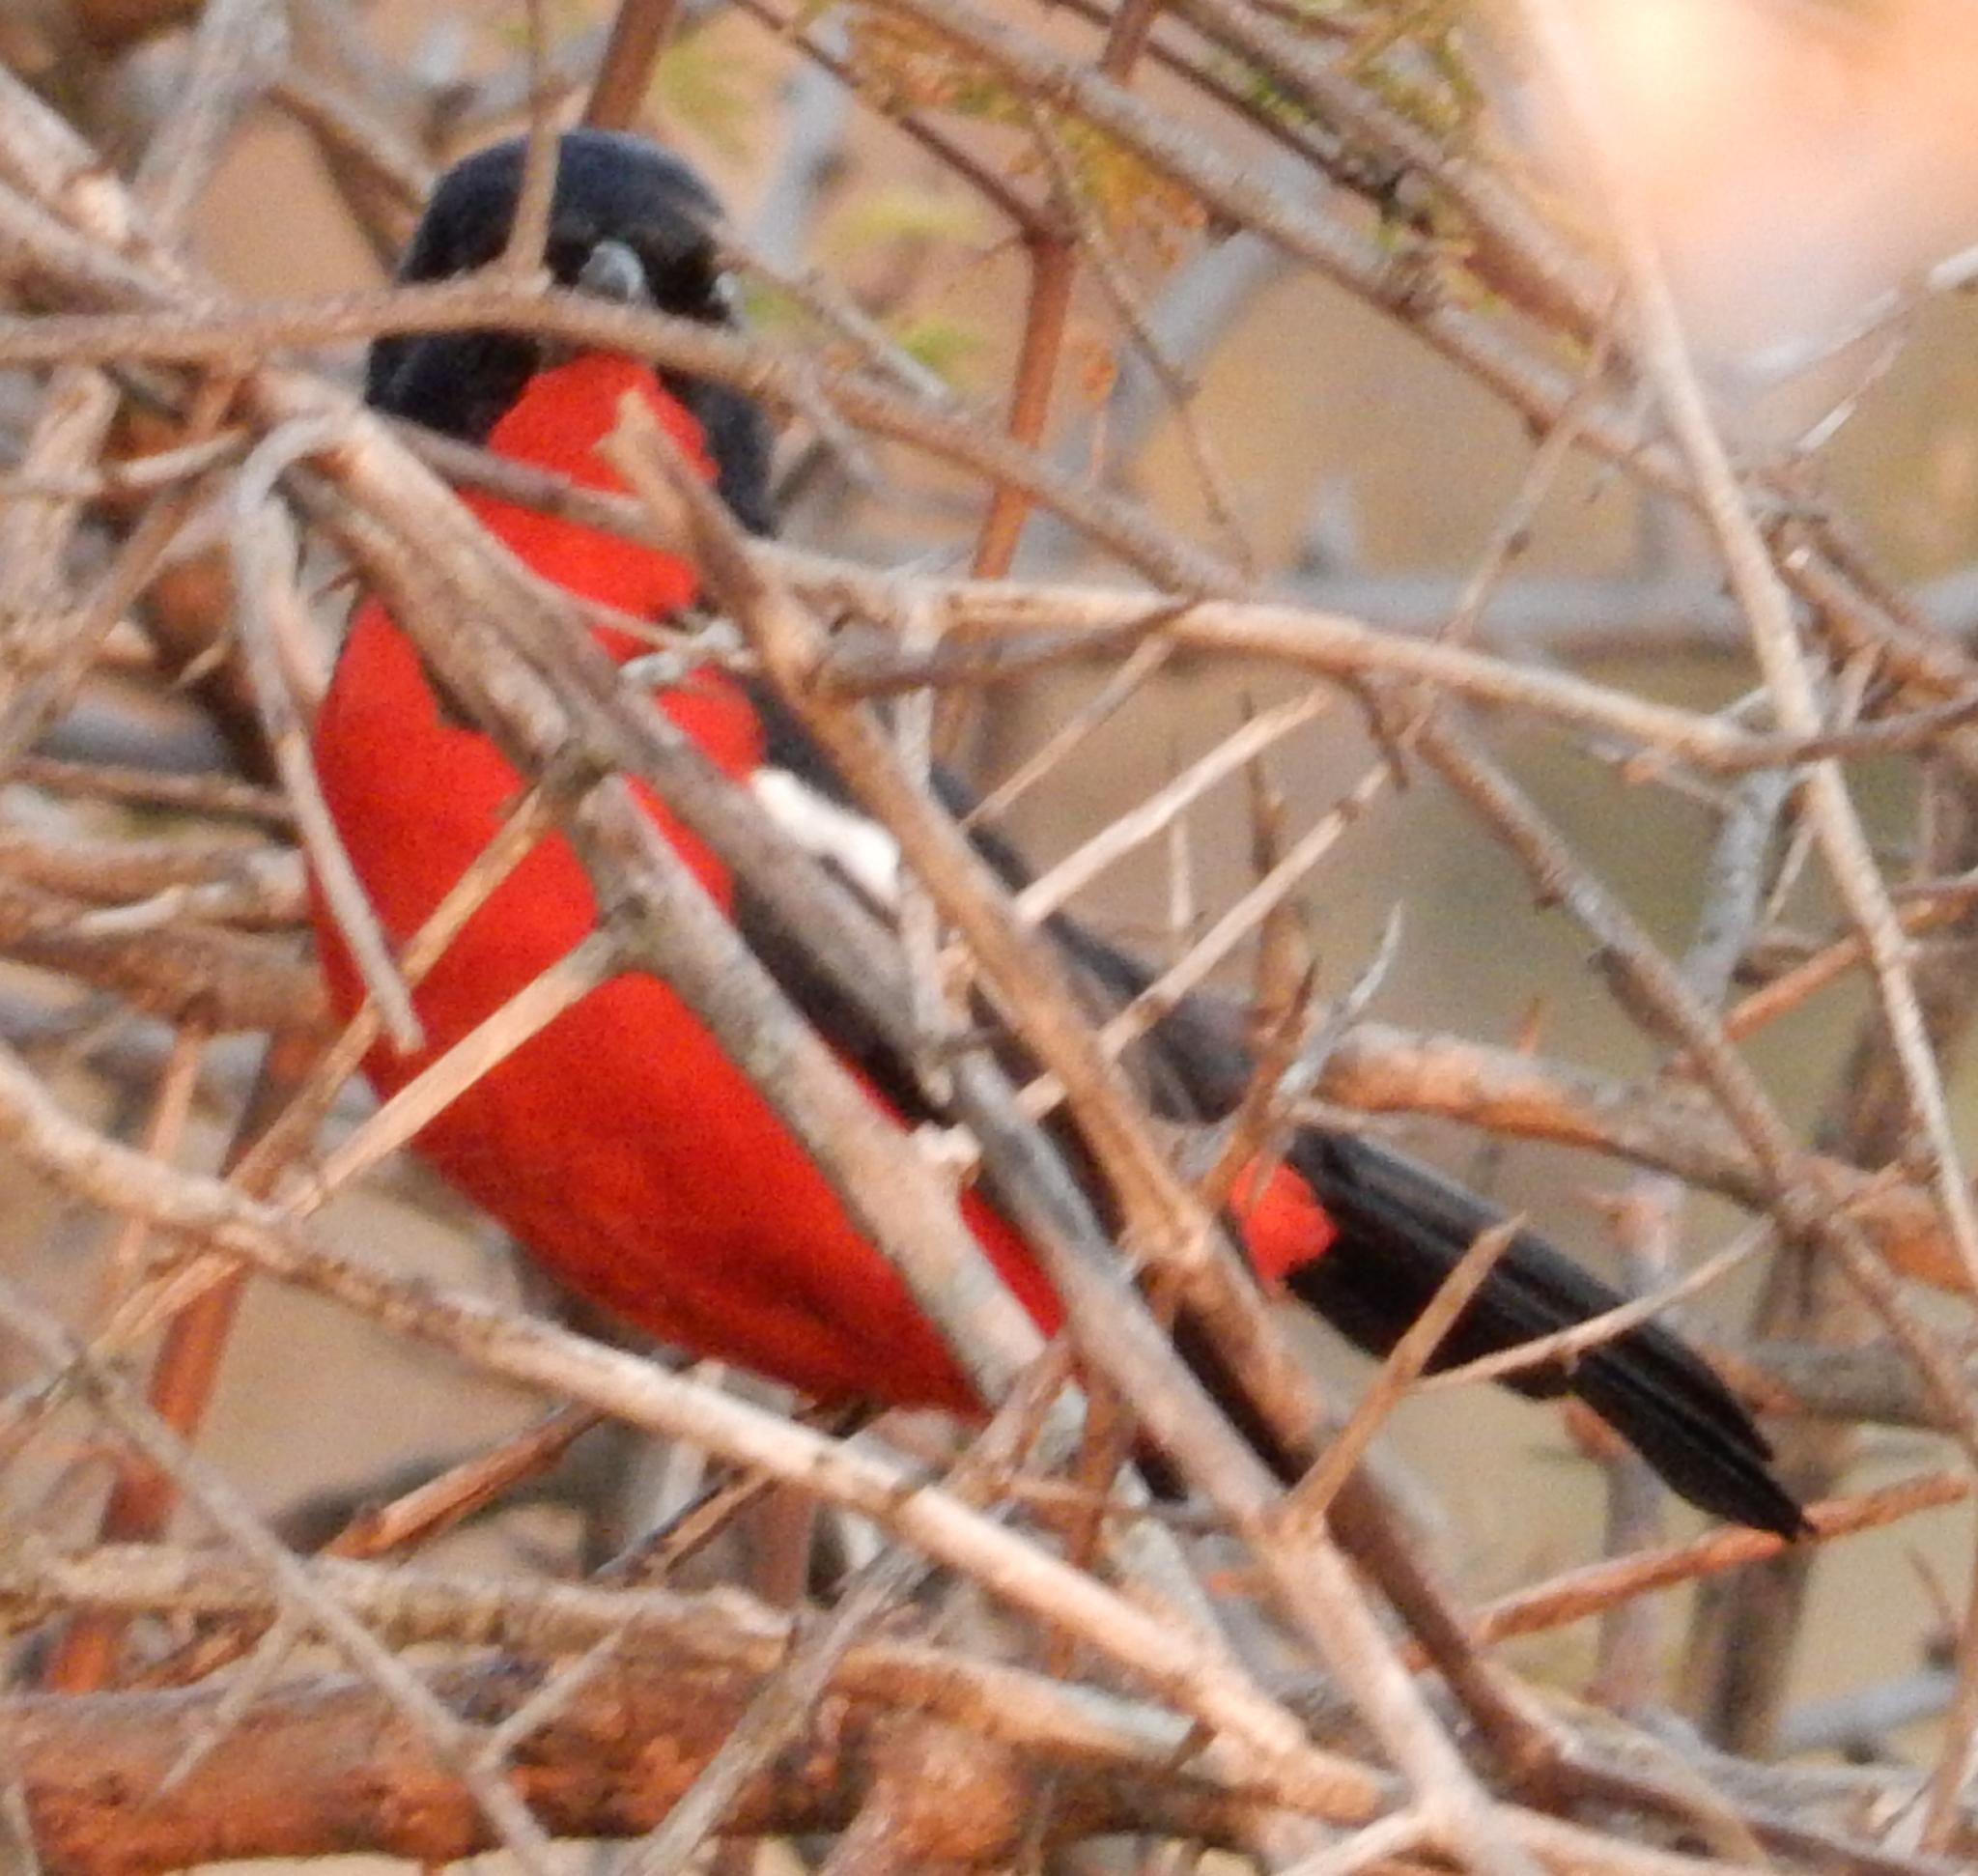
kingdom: Animalia
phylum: Chordata
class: Aves
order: Passeriformes
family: Malaconotidae
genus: Laniarius
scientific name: Laniarius atrococcineus
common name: Crimson-breasted shrike
